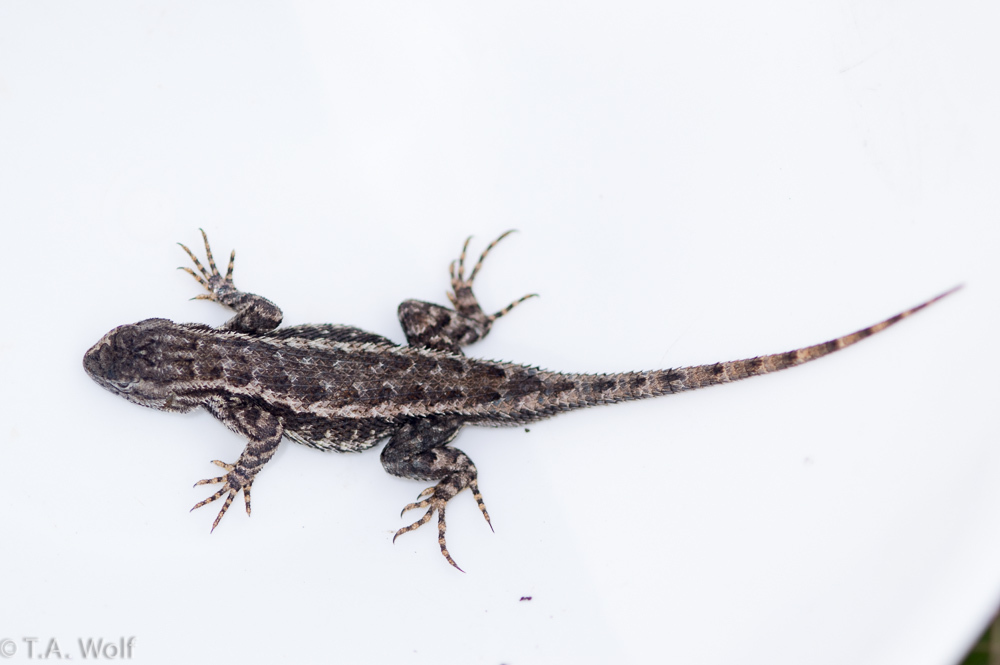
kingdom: Animalia
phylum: Chordata
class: Squamata
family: Phrynosomatidae
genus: Sceloporus
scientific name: Sceloporus occidentalis
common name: Western fence lizard
